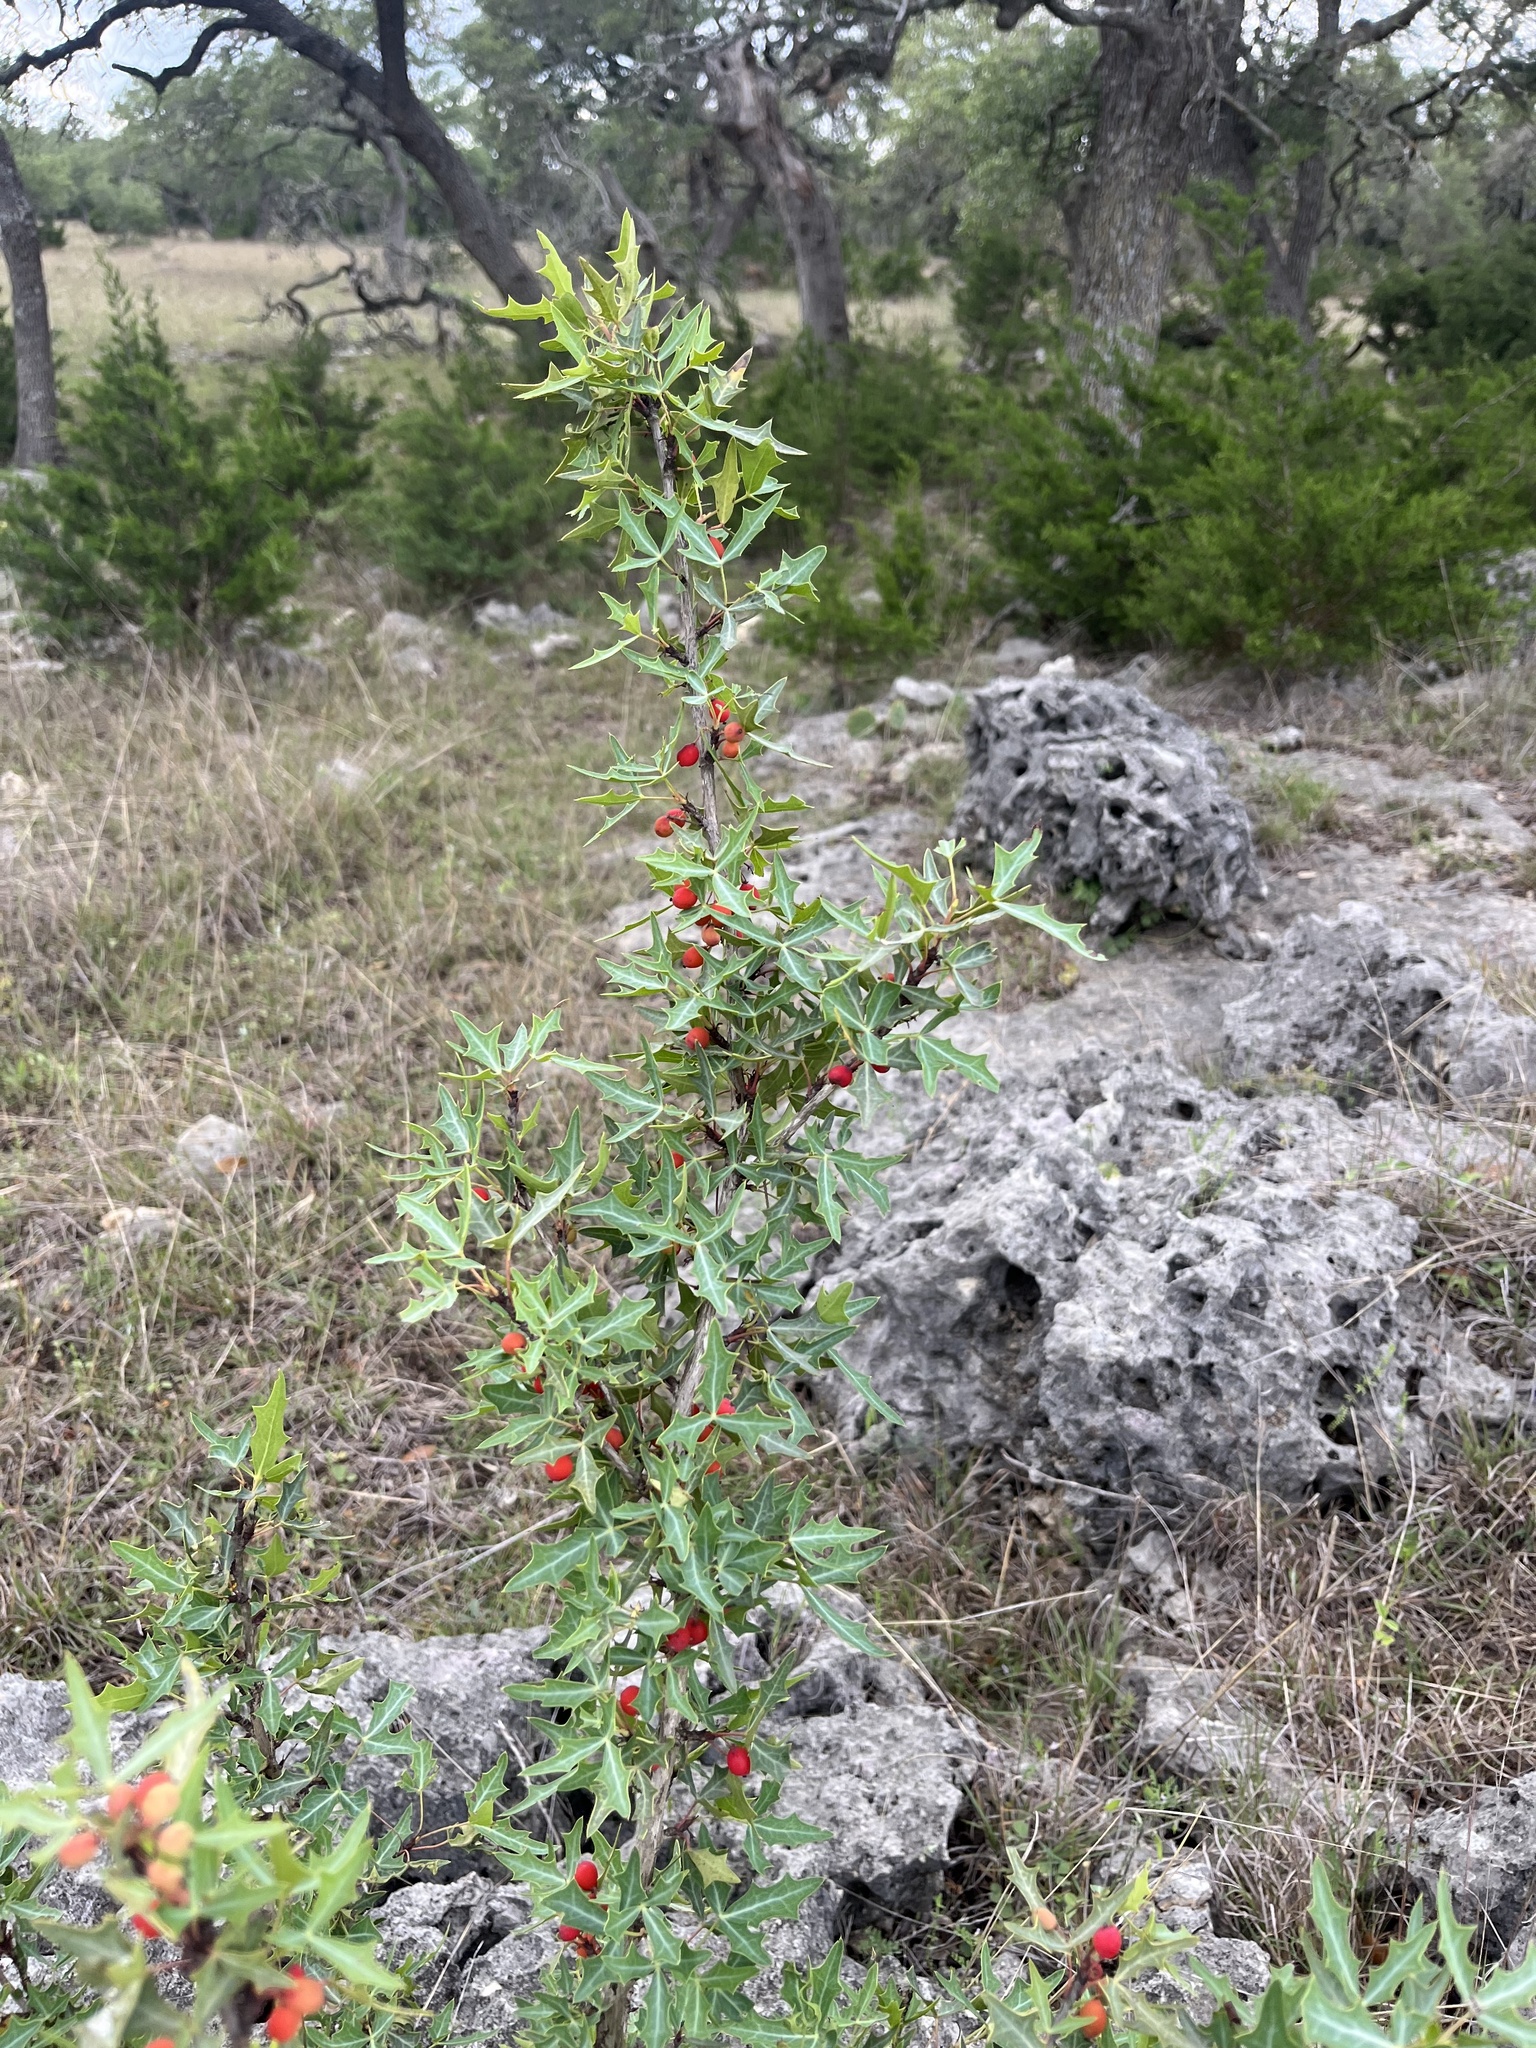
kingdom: Plantae
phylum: Tracheophyta
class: Magnoliopsida
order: Ranunculales
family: Berberidaceae
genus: Alloberberis
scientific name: Alloberberis trifoliolata
